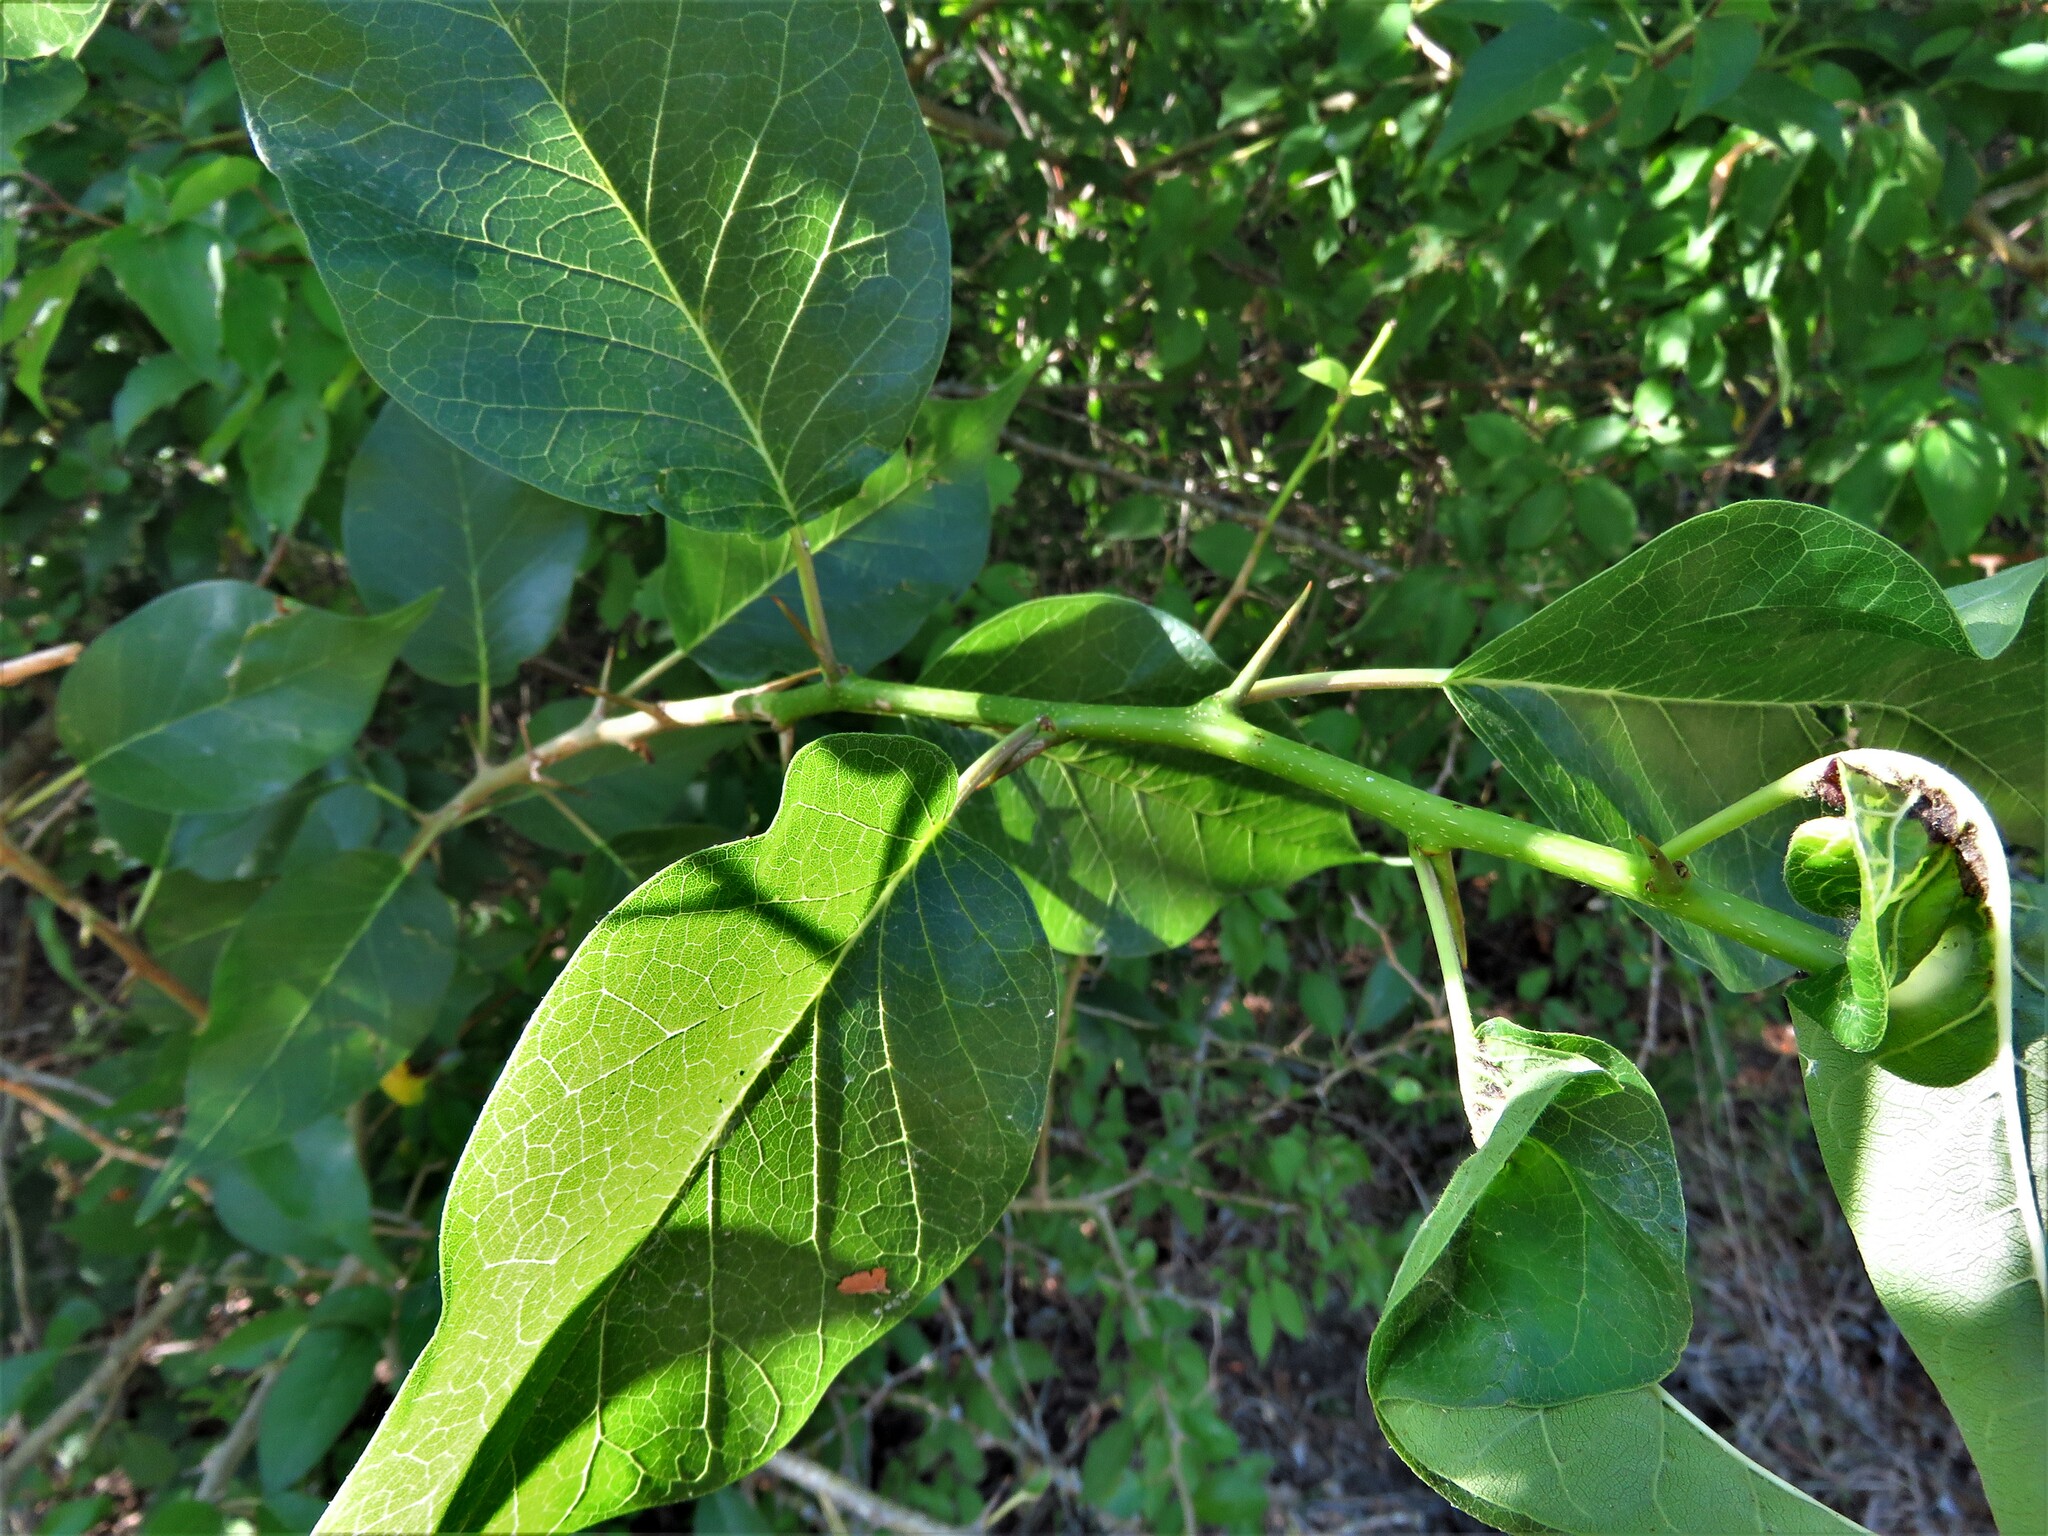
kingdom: Plantae
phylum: Tracheophyta
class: Magnoliopsida
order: Rosales
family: Moraceae
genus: Maclura
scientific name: Maclura pomifera
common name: Osage-orange
